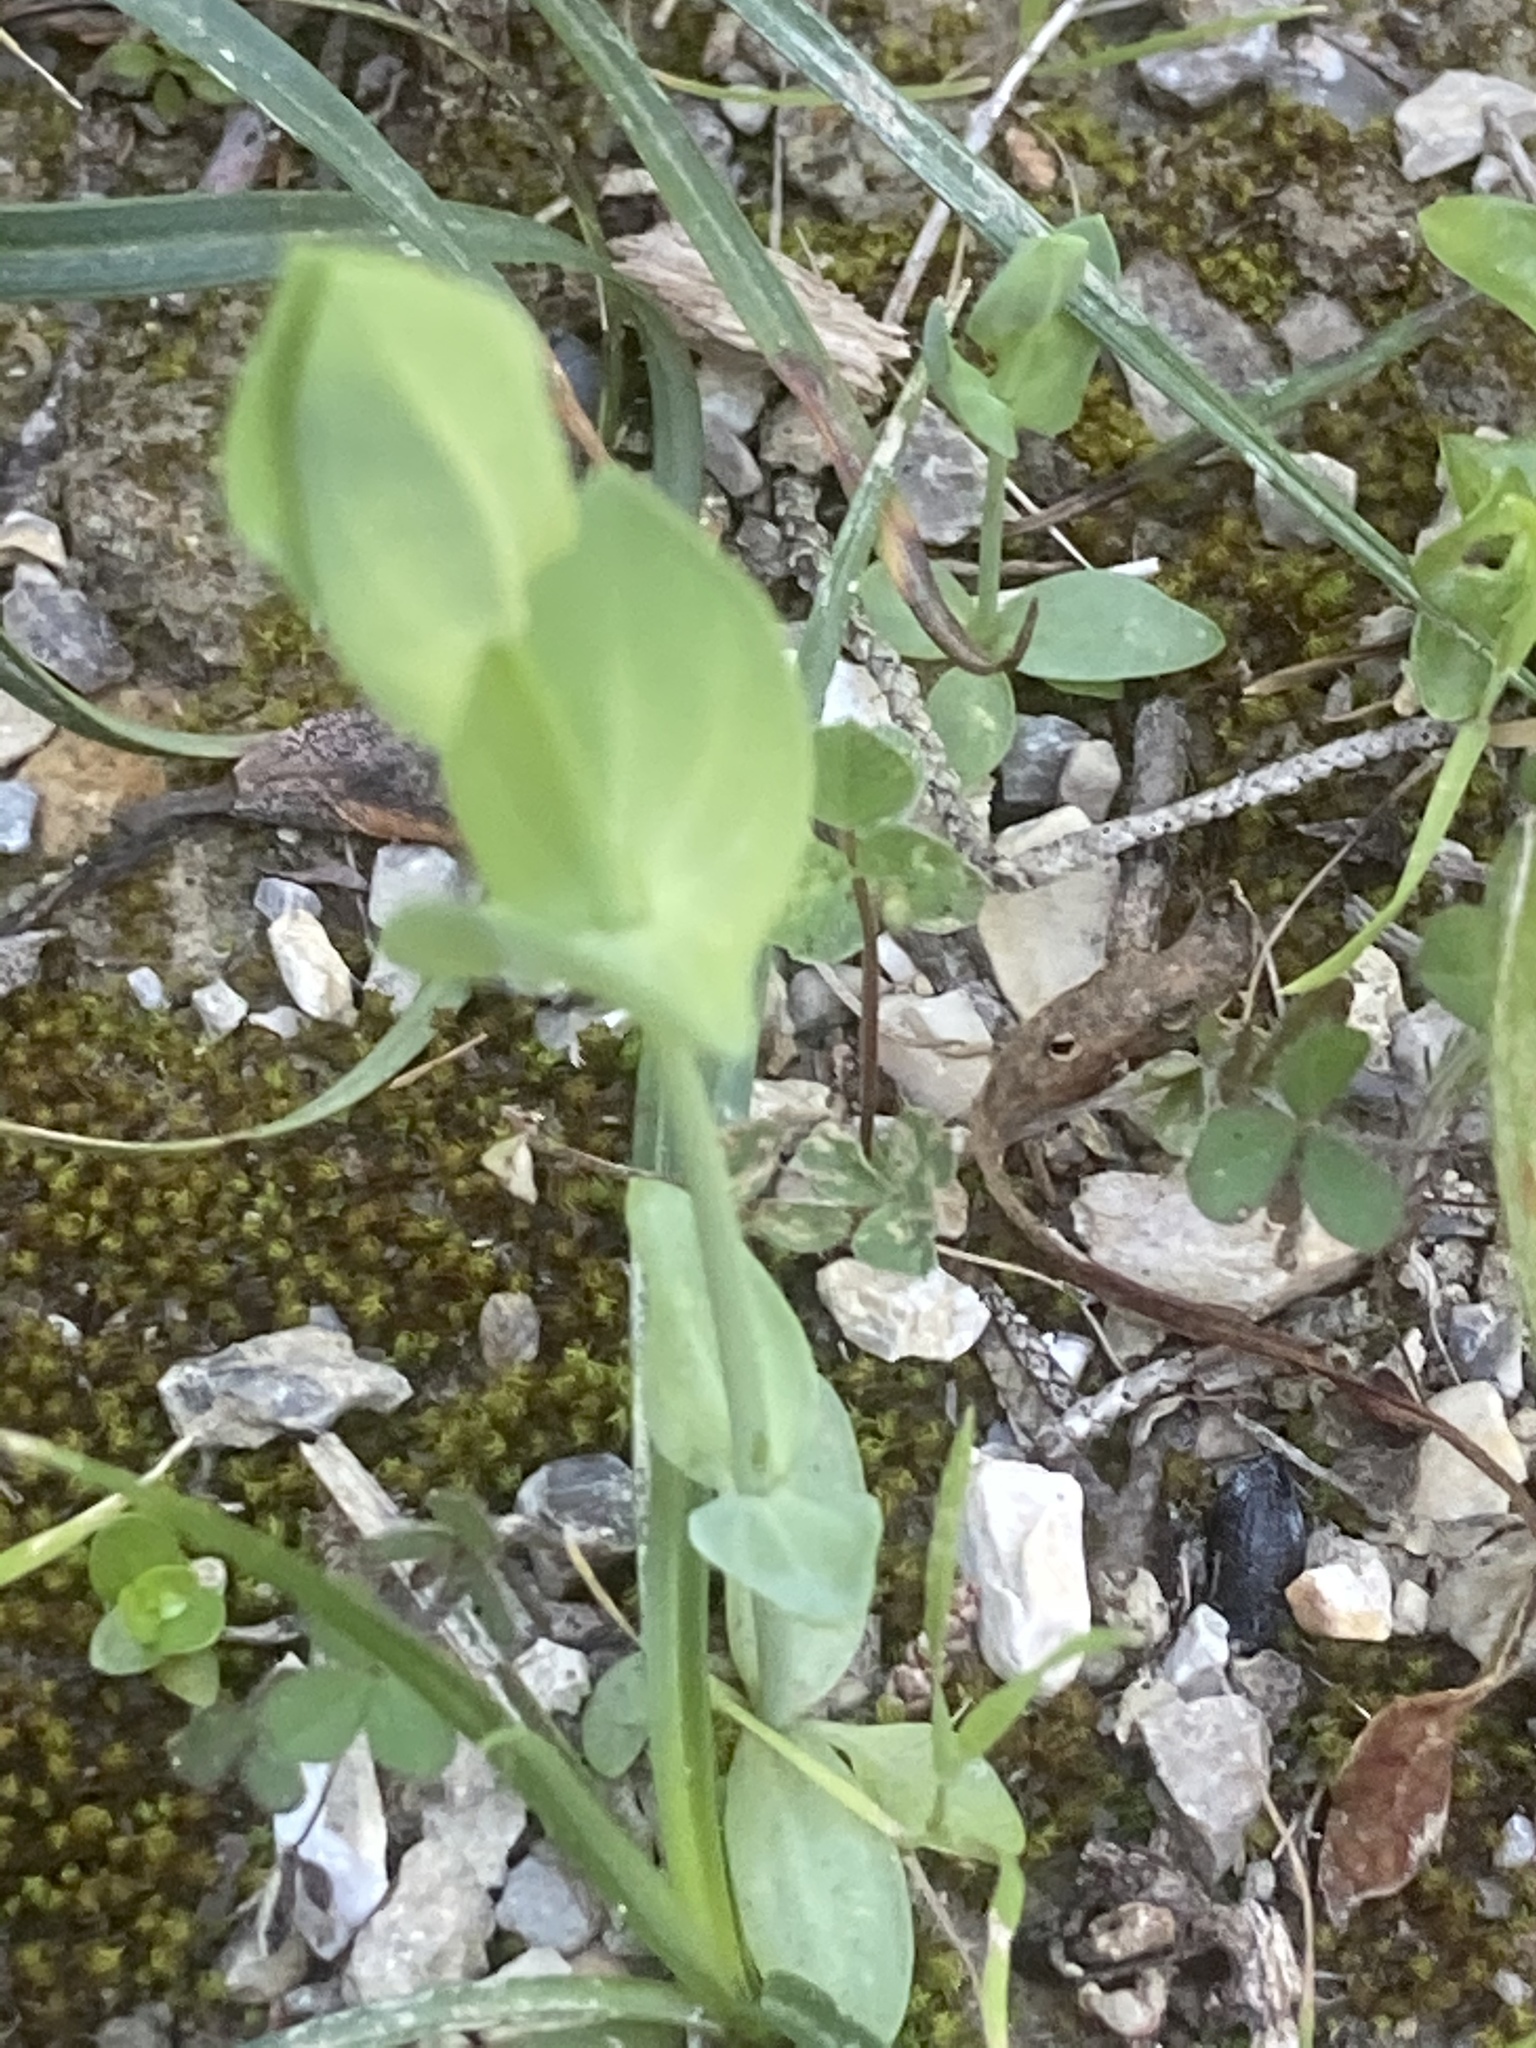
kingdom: Plantae
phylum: Tracheophyta
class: Magnoliopsida
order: Gentianales
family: Gentianaceae
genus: Blackstonia
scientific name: Blackstonia perfoliata
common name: Yellow-wort
